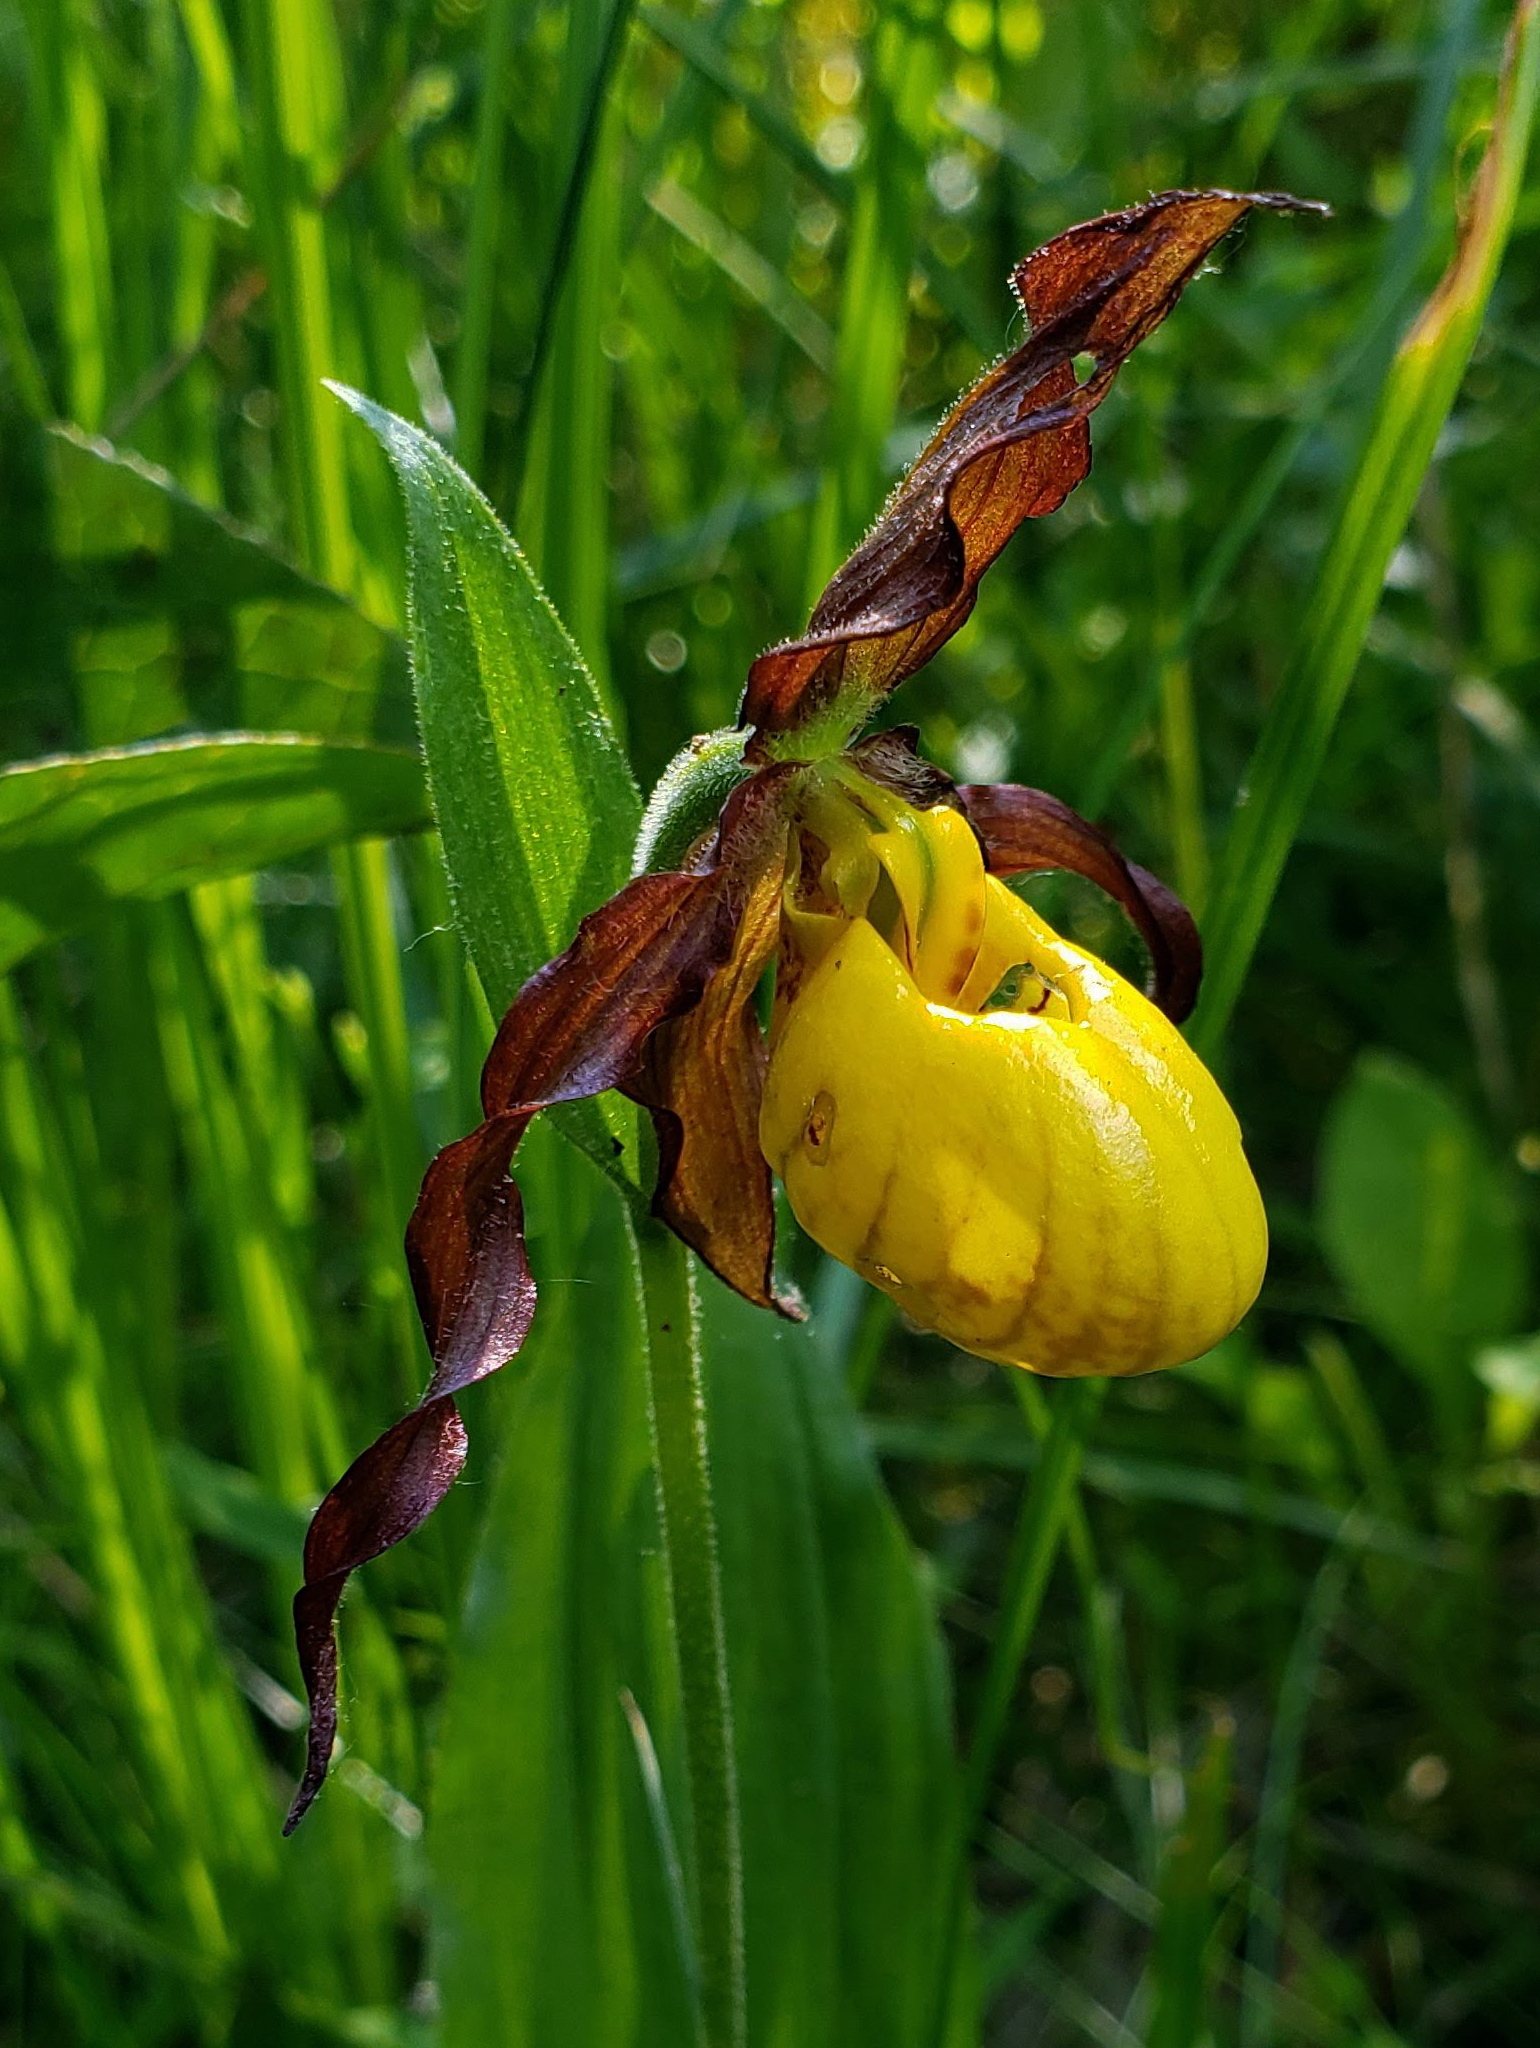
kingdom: Plantae
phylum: Tracheophyta
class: Liliopsida
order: Asparagales
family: Orchidaceae
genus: Cypripedium
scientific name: Cypripedium parviflorum
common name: American yellow lady's-slipper
